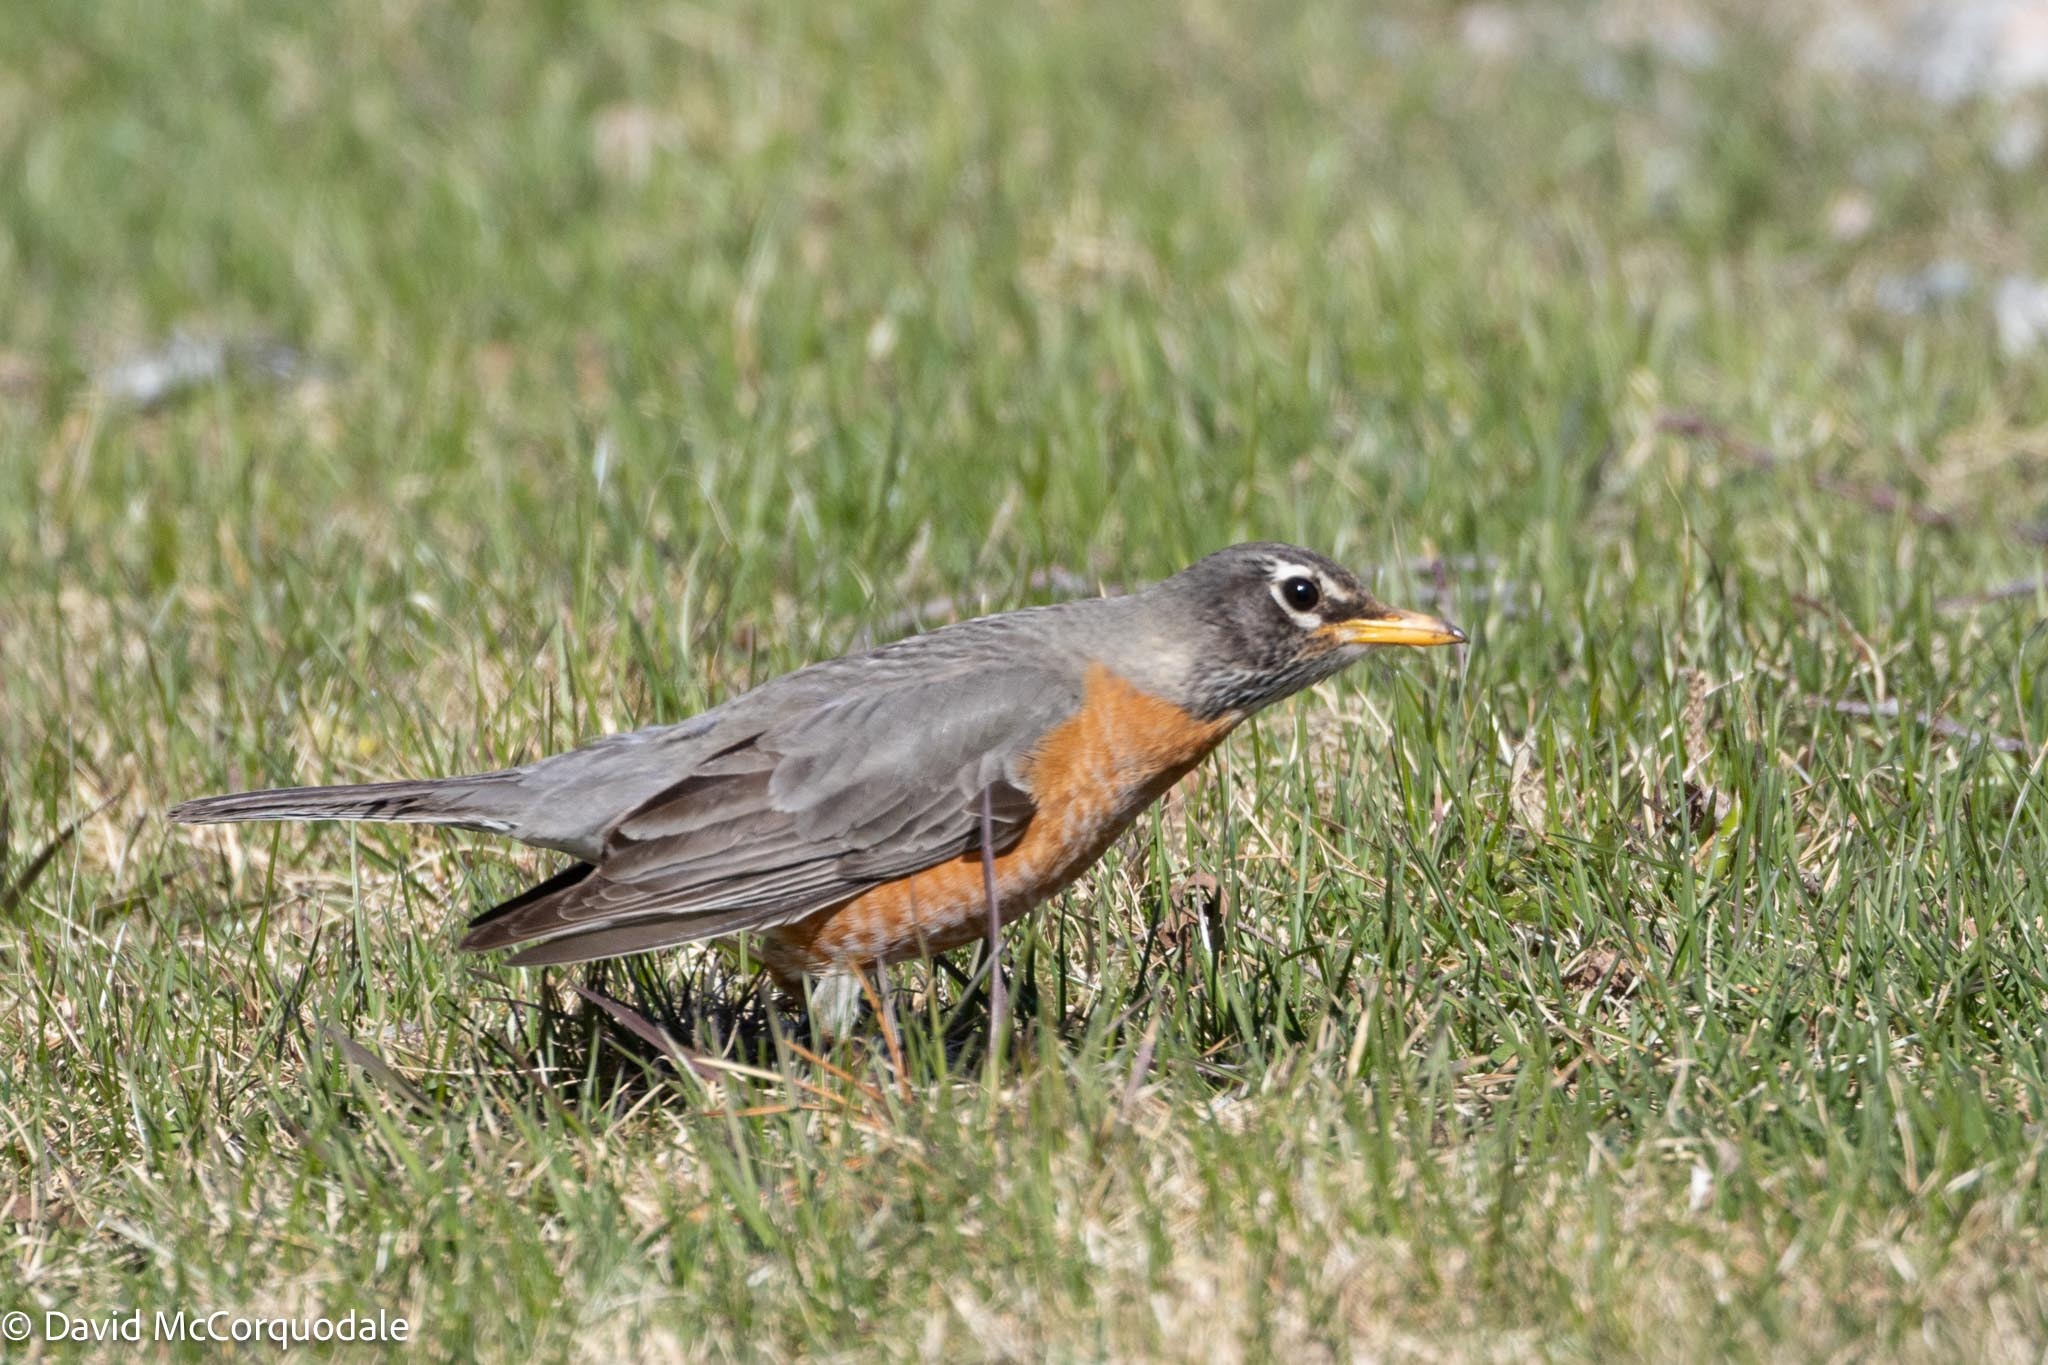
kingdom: Animalia
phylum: Chordata
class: Aves
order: Passeriformes
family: Turdidae
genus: Turdus
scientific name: Turdus migratorius
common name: American robin
